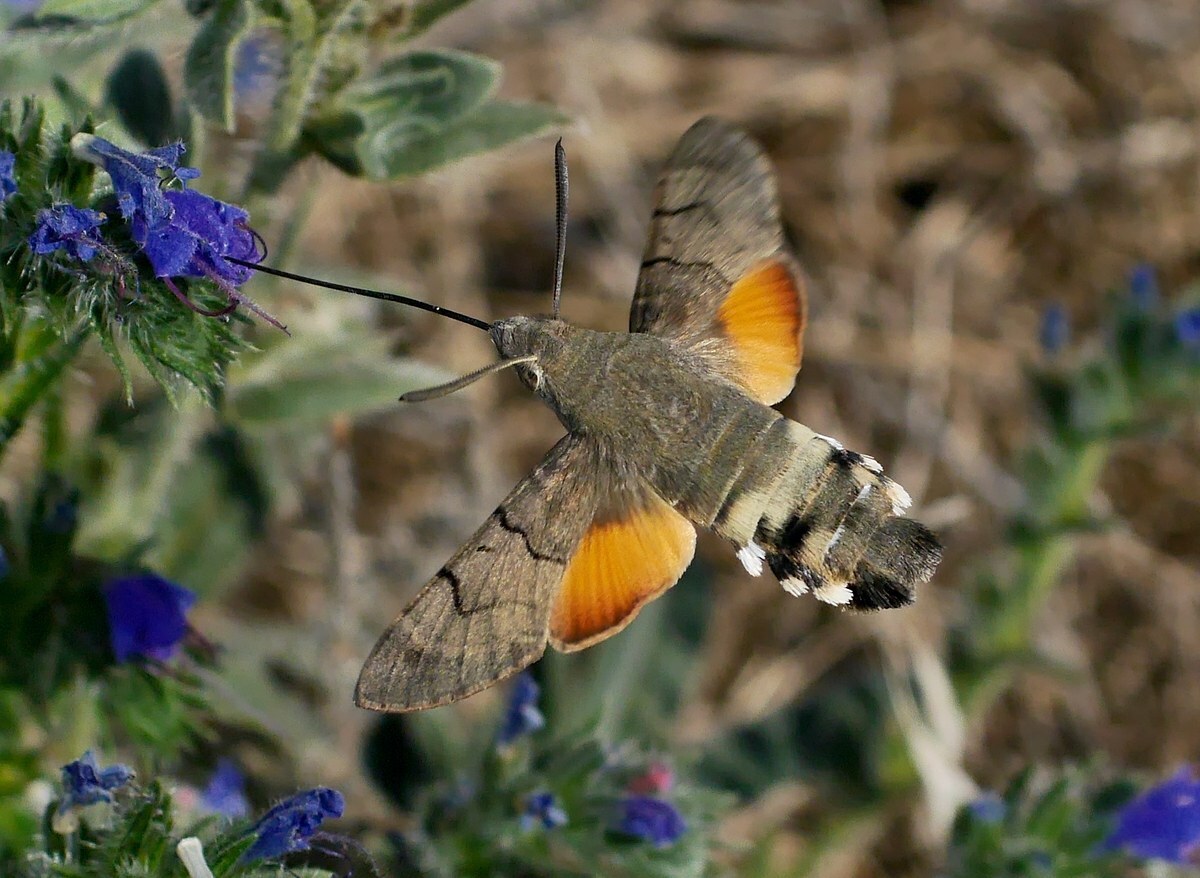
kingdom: Animalia
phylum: Arthropoda
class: Insecta
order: Lepidoptera
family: Sphingidae
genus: Macroglossum
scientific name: Macroglossum stellatarum
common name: Humming-bird hawk-moth
